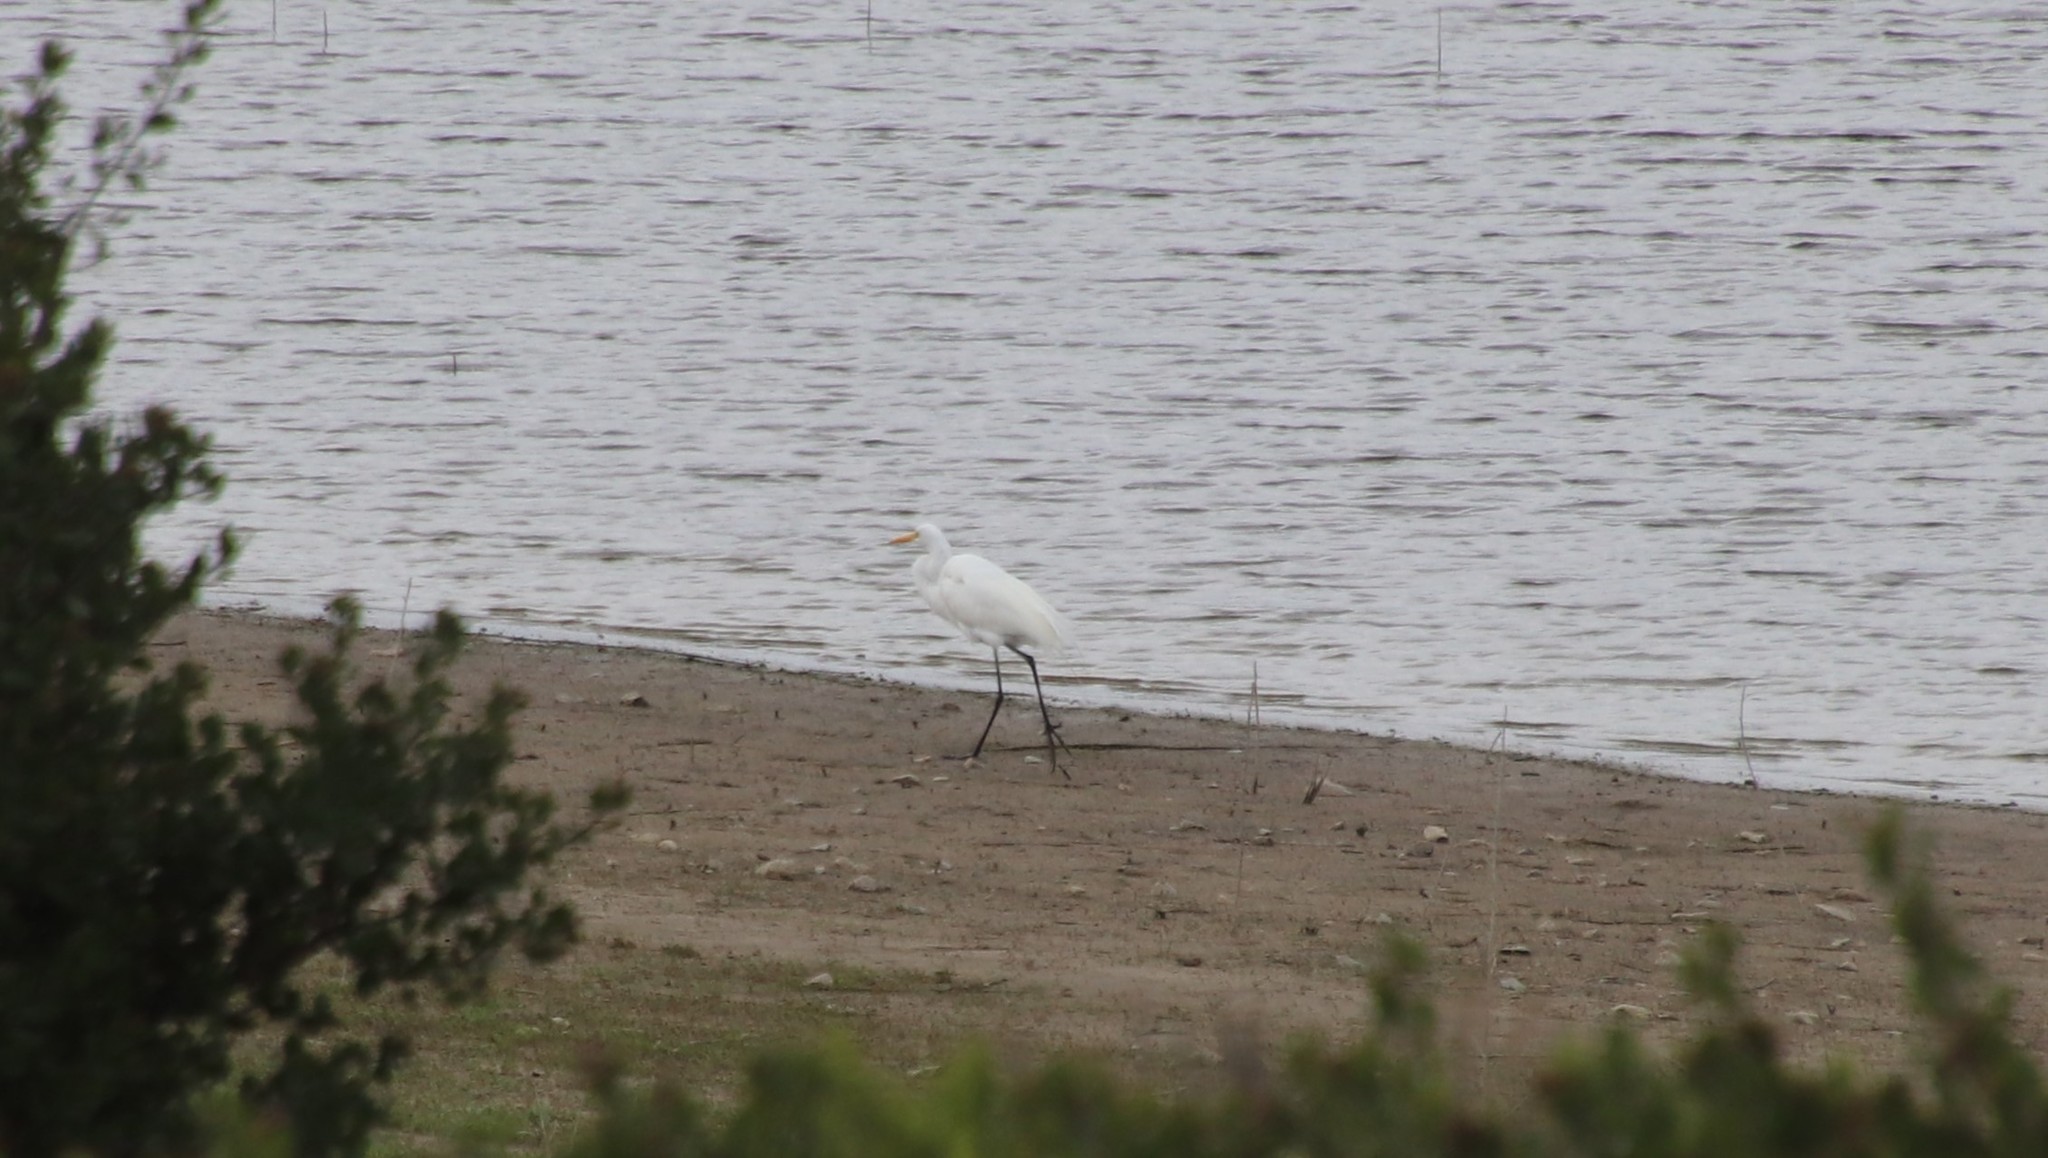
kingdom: Animalia
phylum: Chordata
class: Aves
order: Pelecaniformes
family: Ardeidae
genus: Ardea
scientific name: Ardea alba
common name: Great egret
